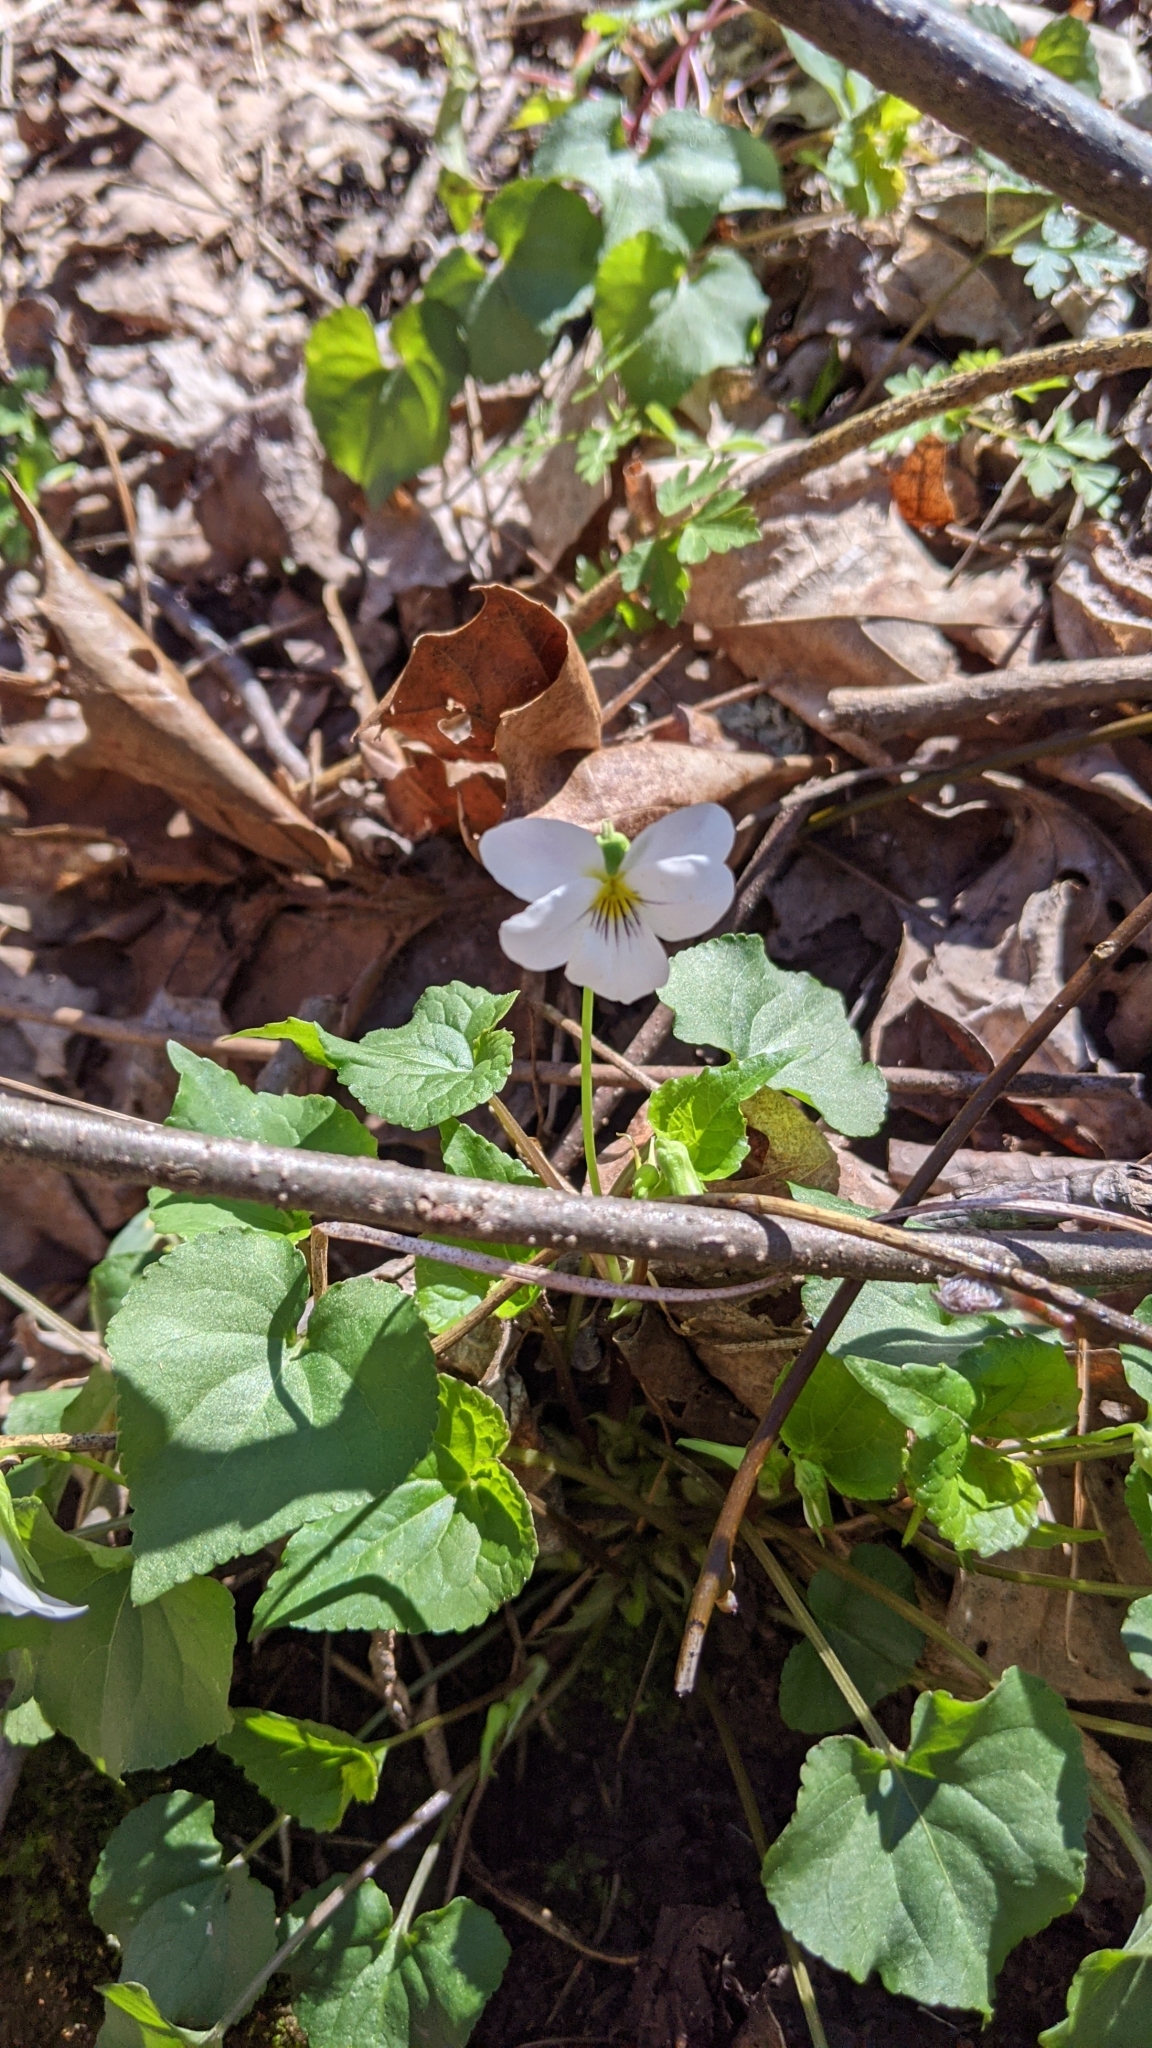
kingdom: Plantae
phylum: Tracheophyta
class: Magnoliopsida
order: Malpighiales
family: Violaceae
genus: Viola
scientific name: Viola canadensis
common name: Canada violet
